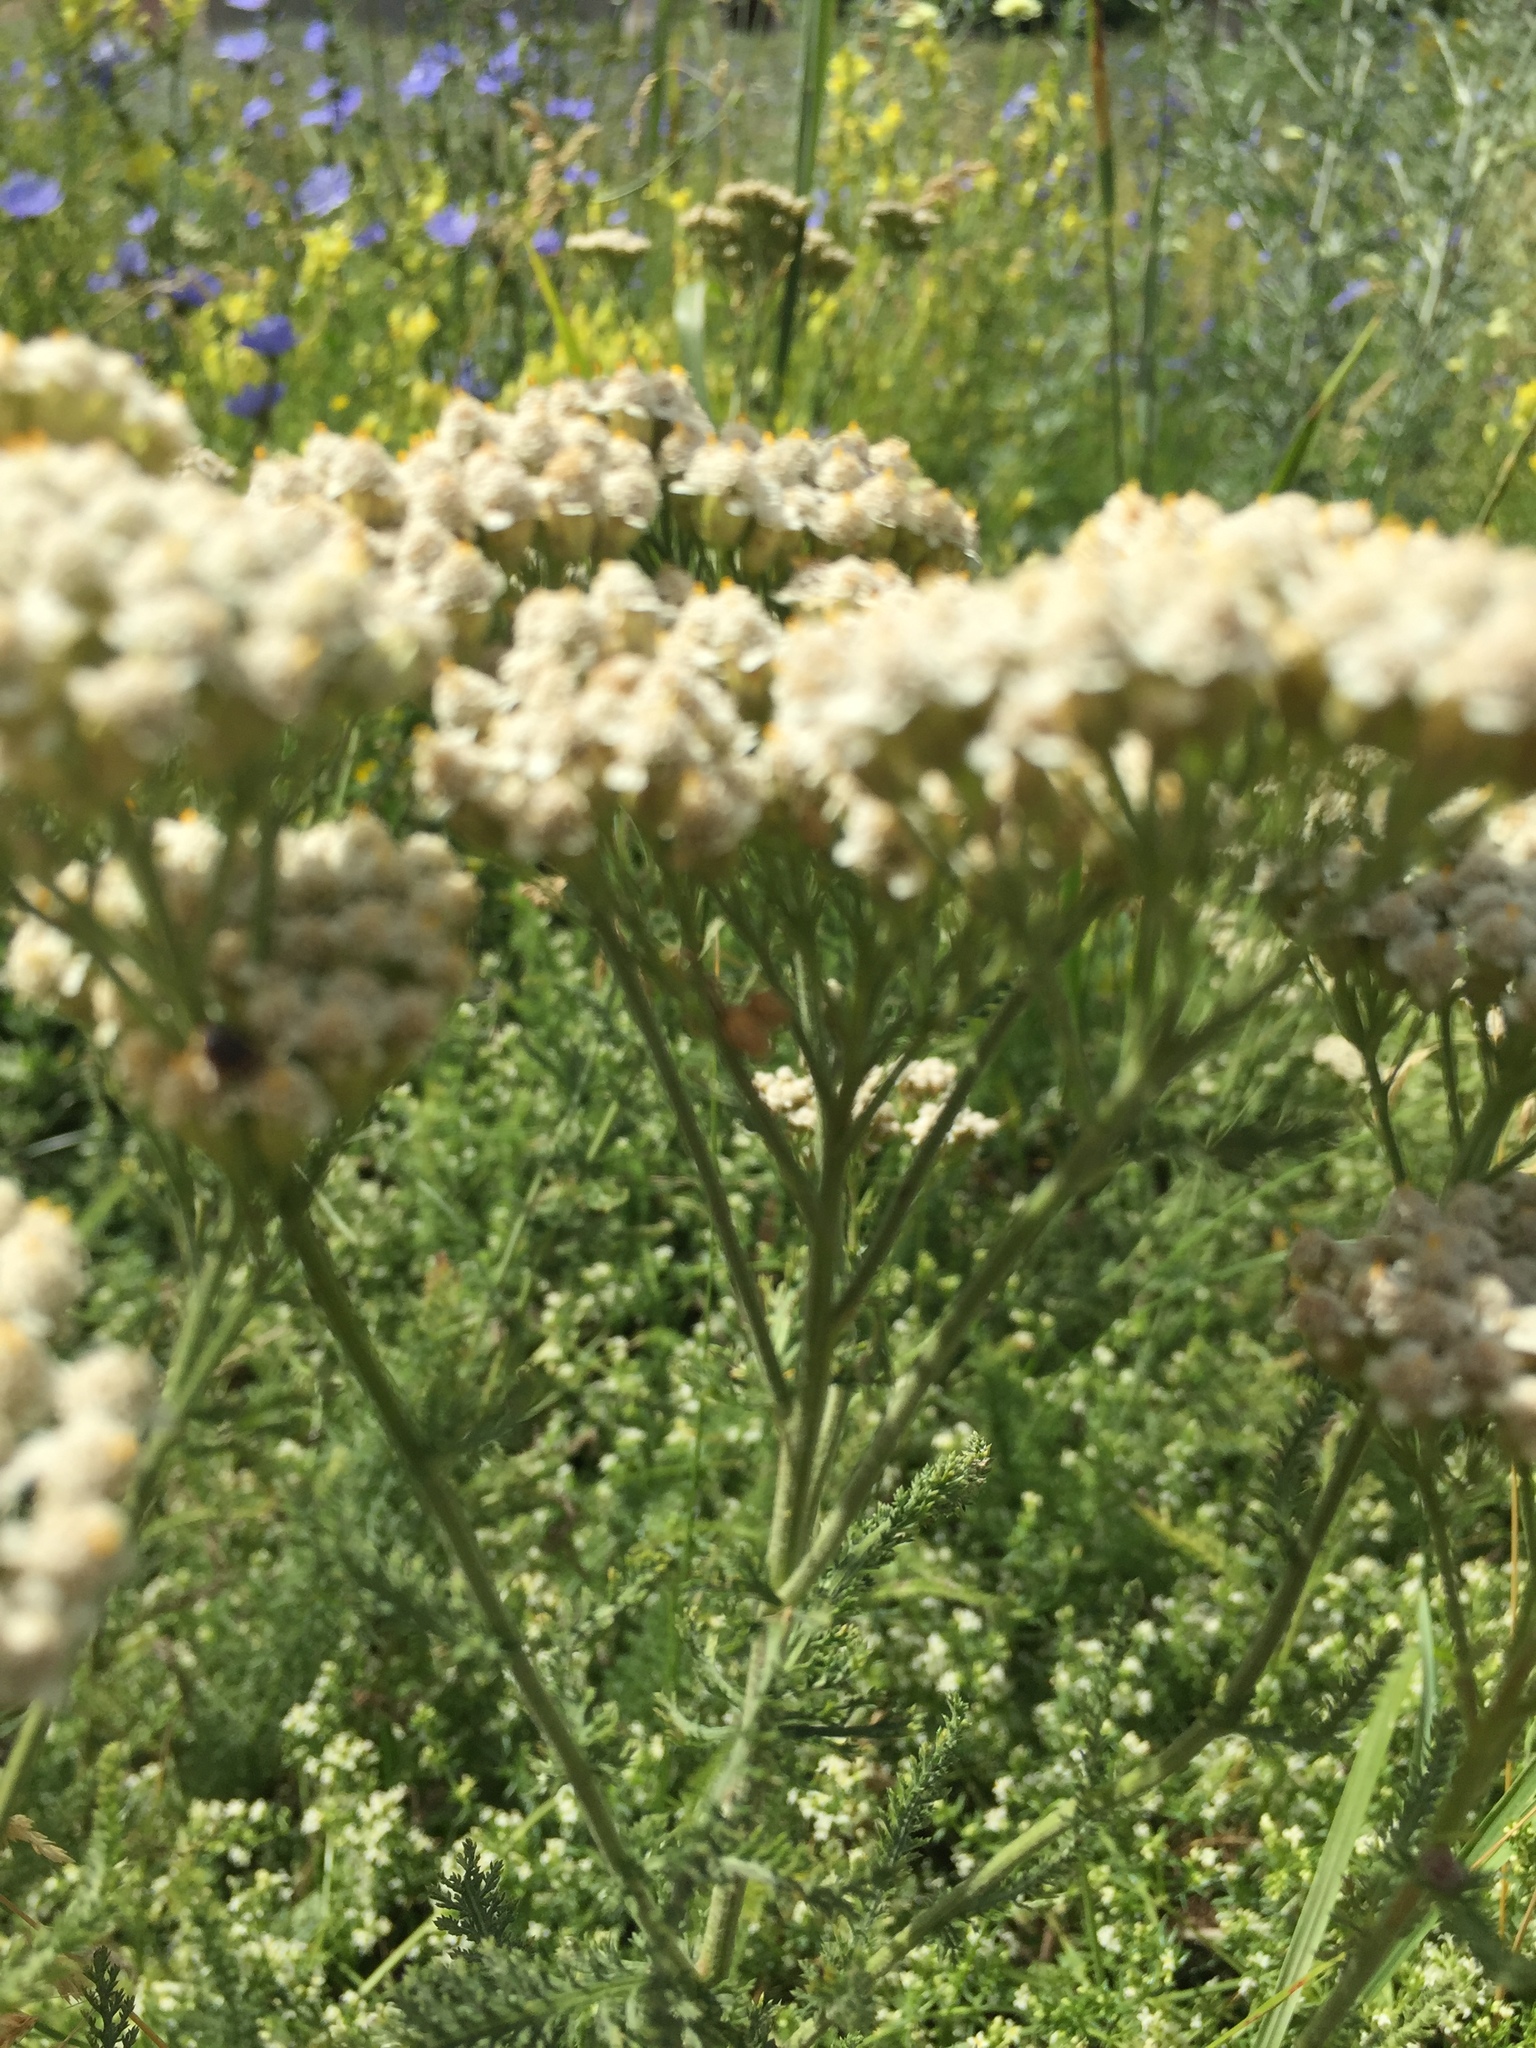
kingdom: Plantae
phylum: Tracheophyta
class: Magnoliopsida
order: Asterales
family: Asteraceae
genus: Achillea
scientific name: Achillea millefolium
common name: Yarrow
